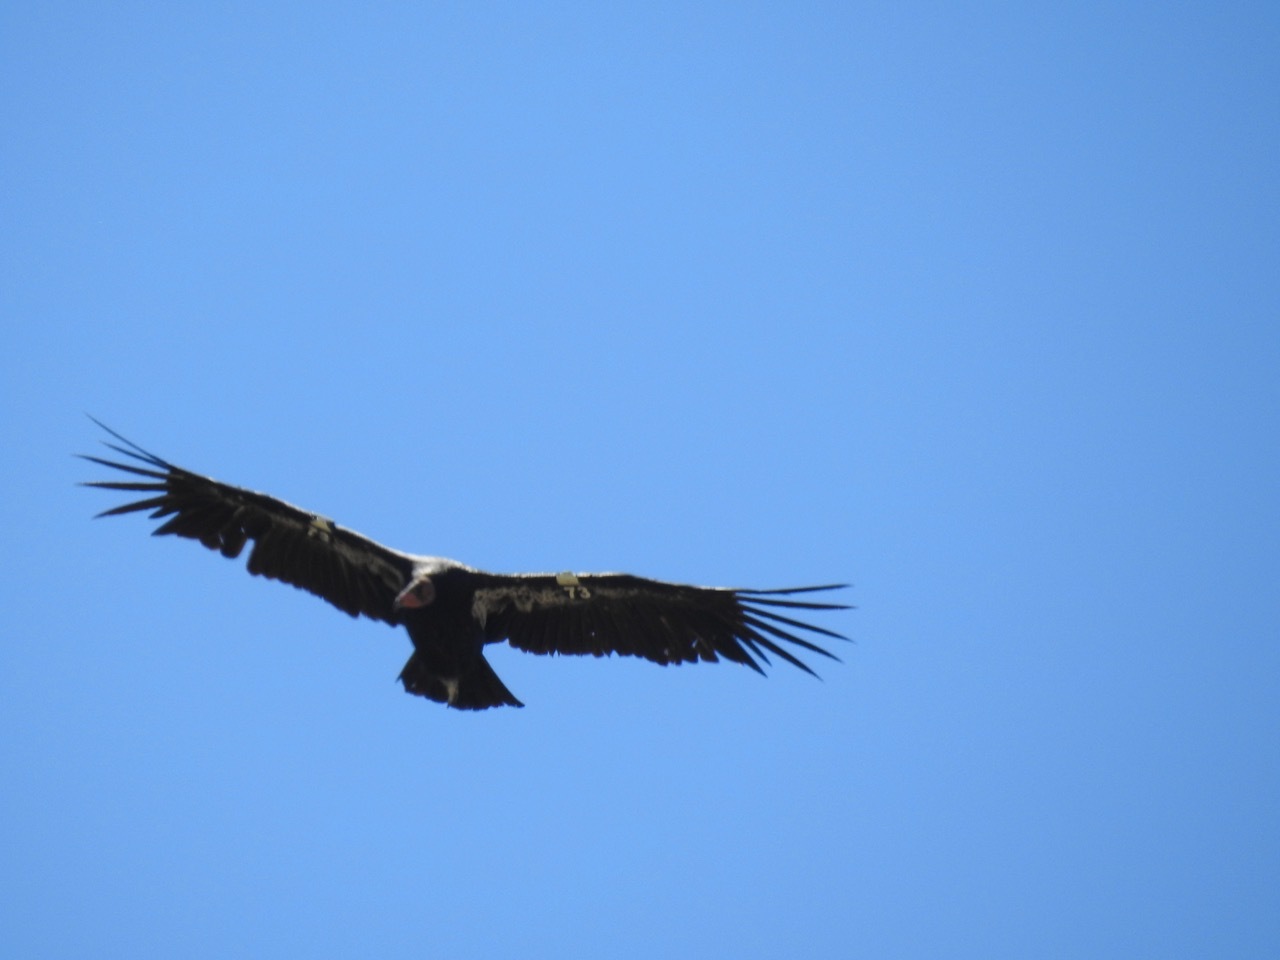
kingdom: Animalia
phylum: Chordata
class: Aves
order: Accipitriformes
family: Cathartidae
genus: Gymnogyps
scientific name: Gymnogyps californianus
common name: California condor
